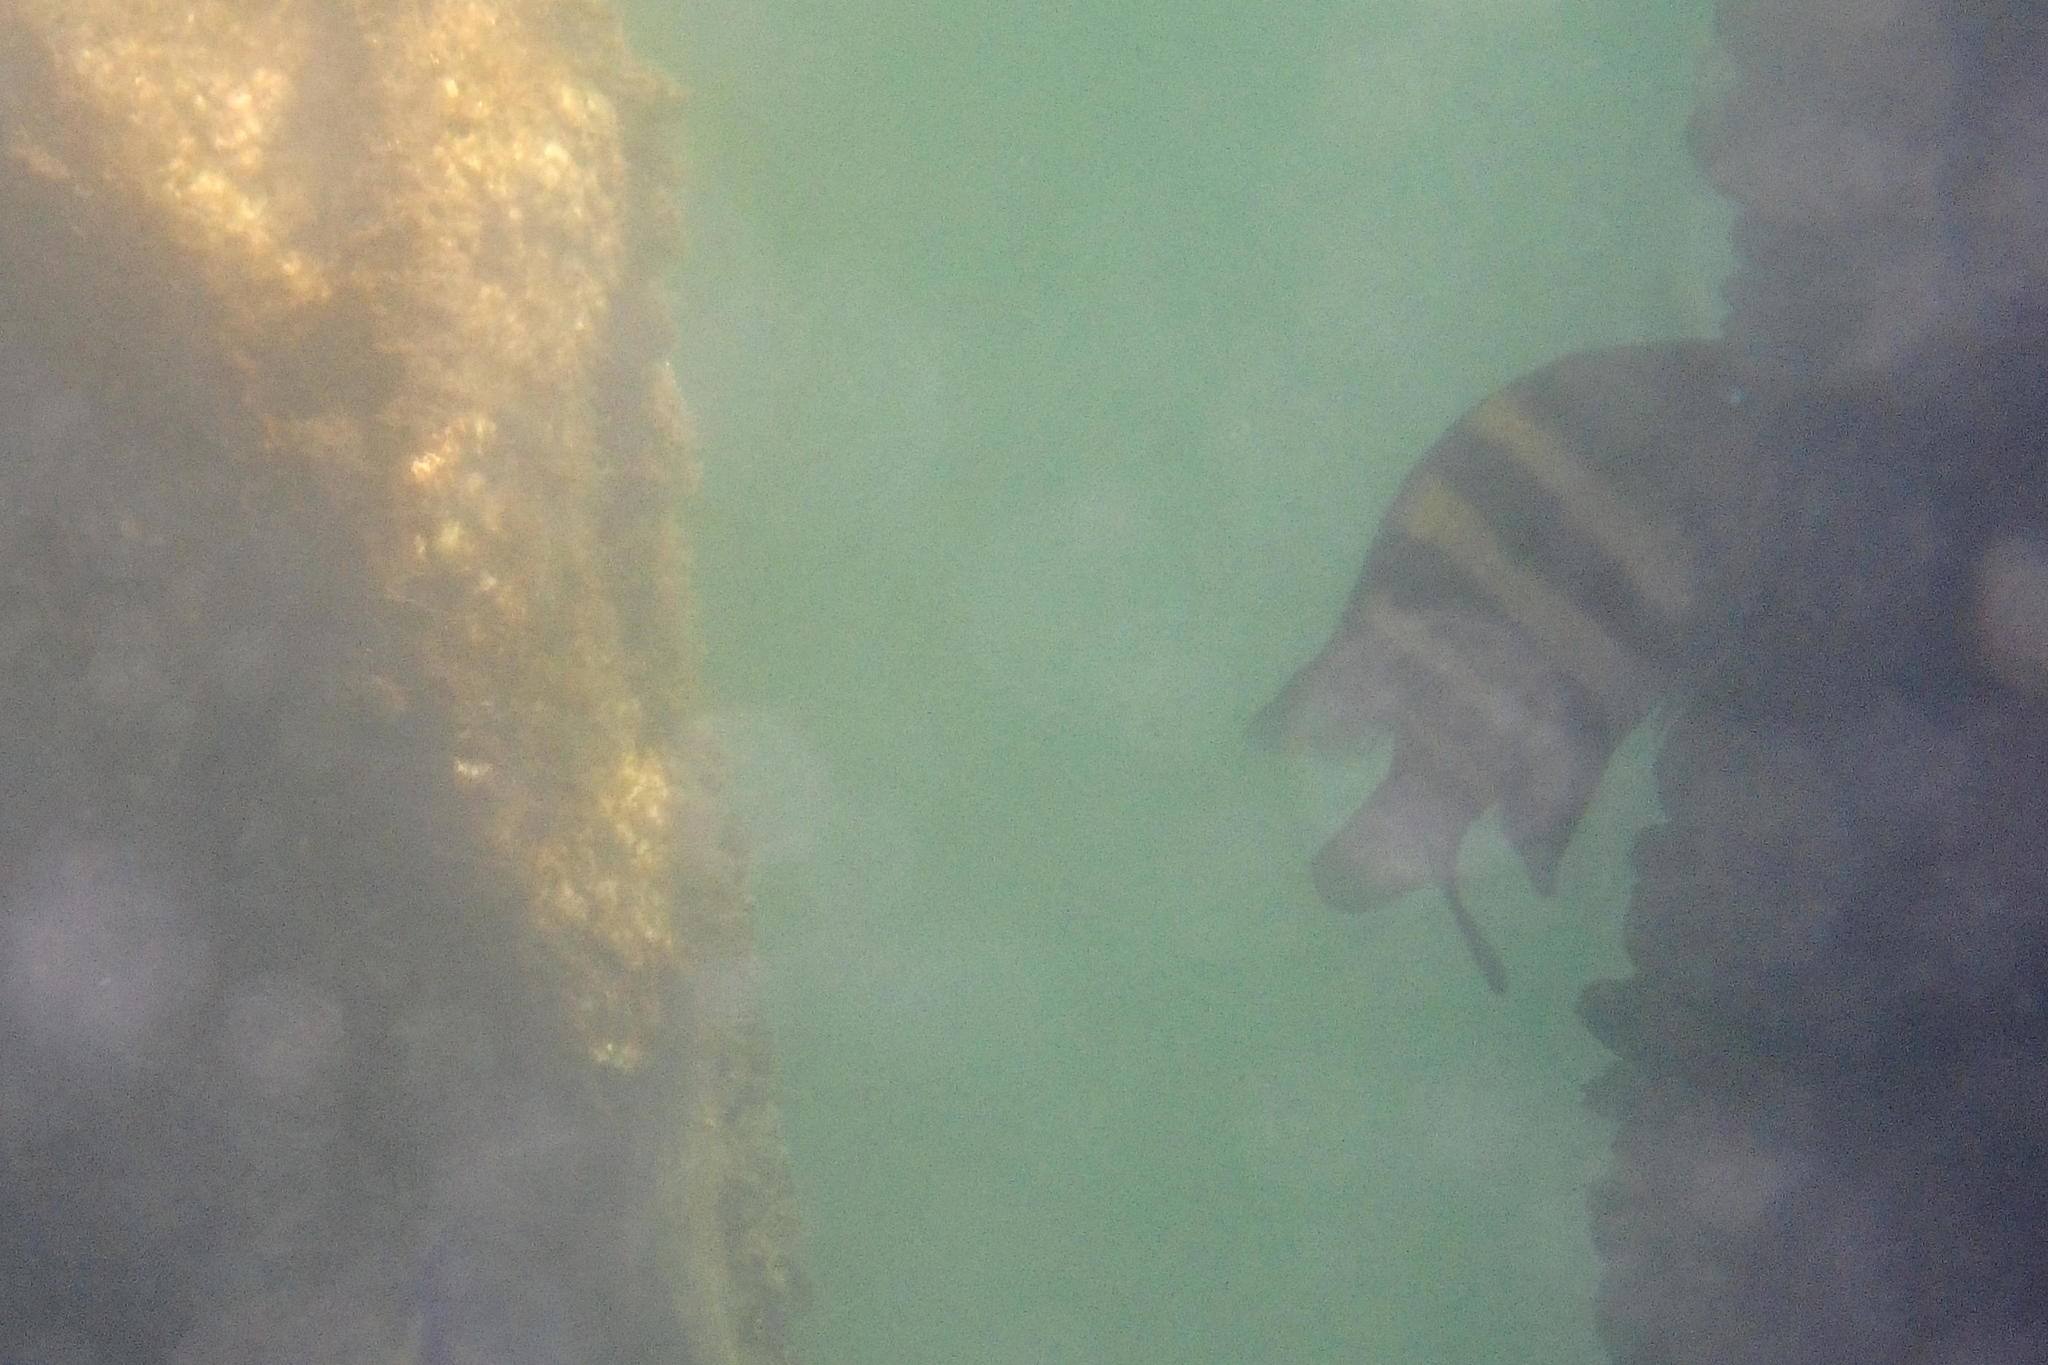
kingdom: Animalia
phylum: Chordata
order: Perciformes
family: Oplegnathidae
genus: Oplegnathus
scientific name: Oplegnathus fasciatus
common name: Barred knifejaw
